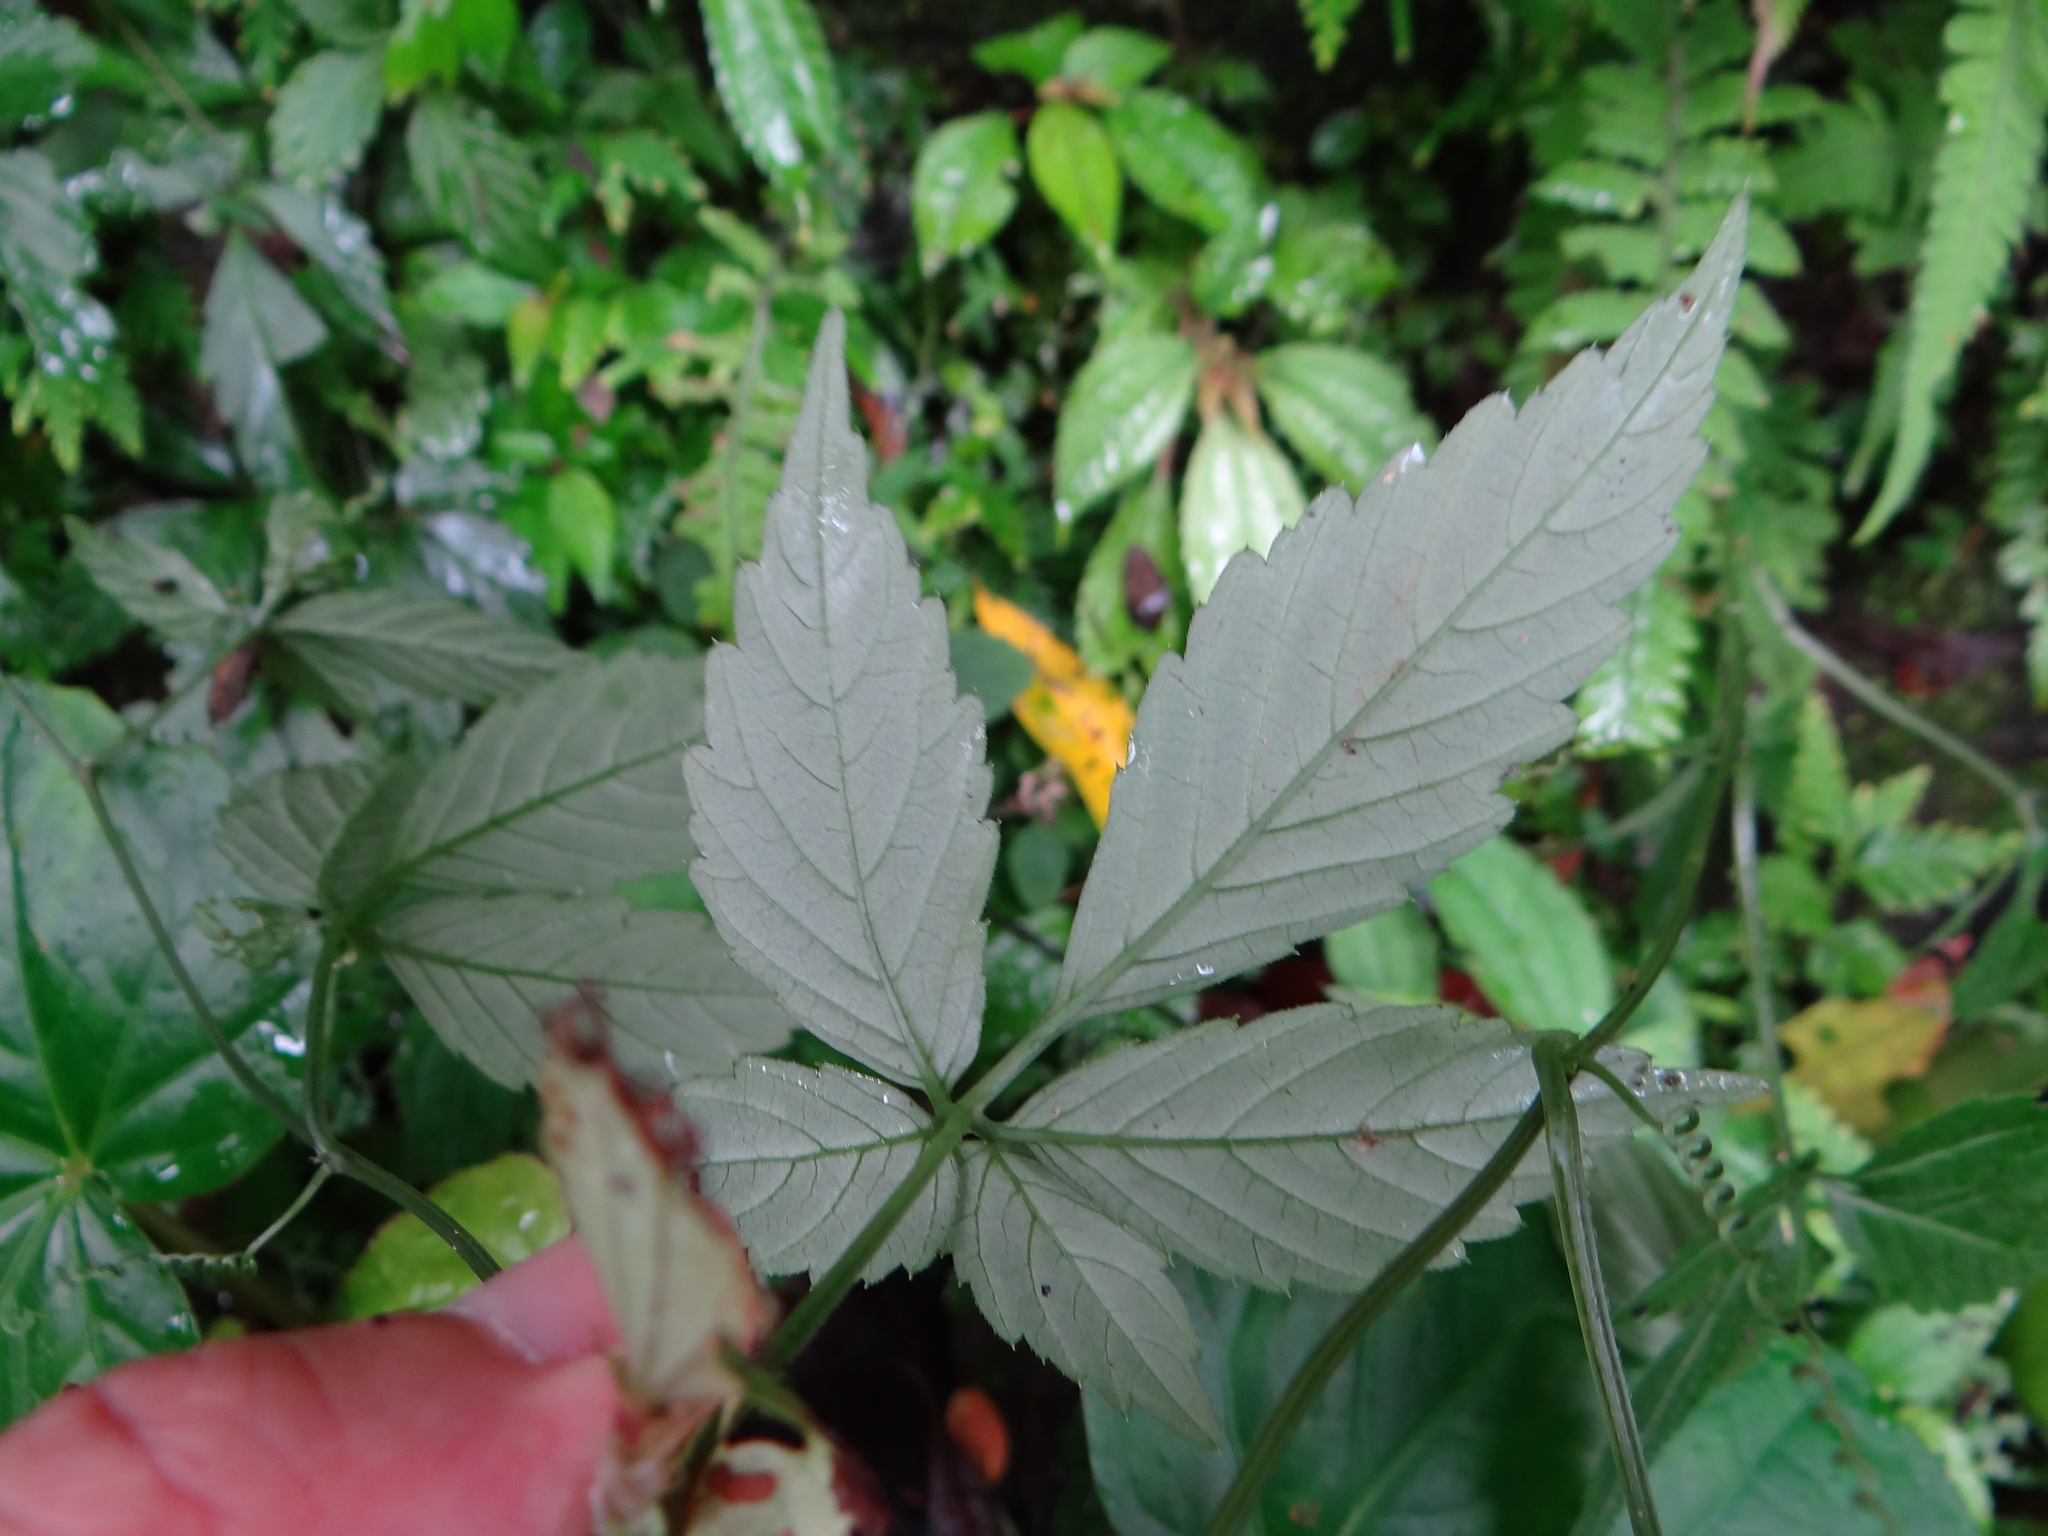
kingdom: Plantae
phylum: Tracheophyta
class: Magnoliopsida
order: Cucurbitales
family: Cucurbitaceae
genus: Gynostemma
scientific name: Gynostemma pentaphyllum
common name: Gynostemma
